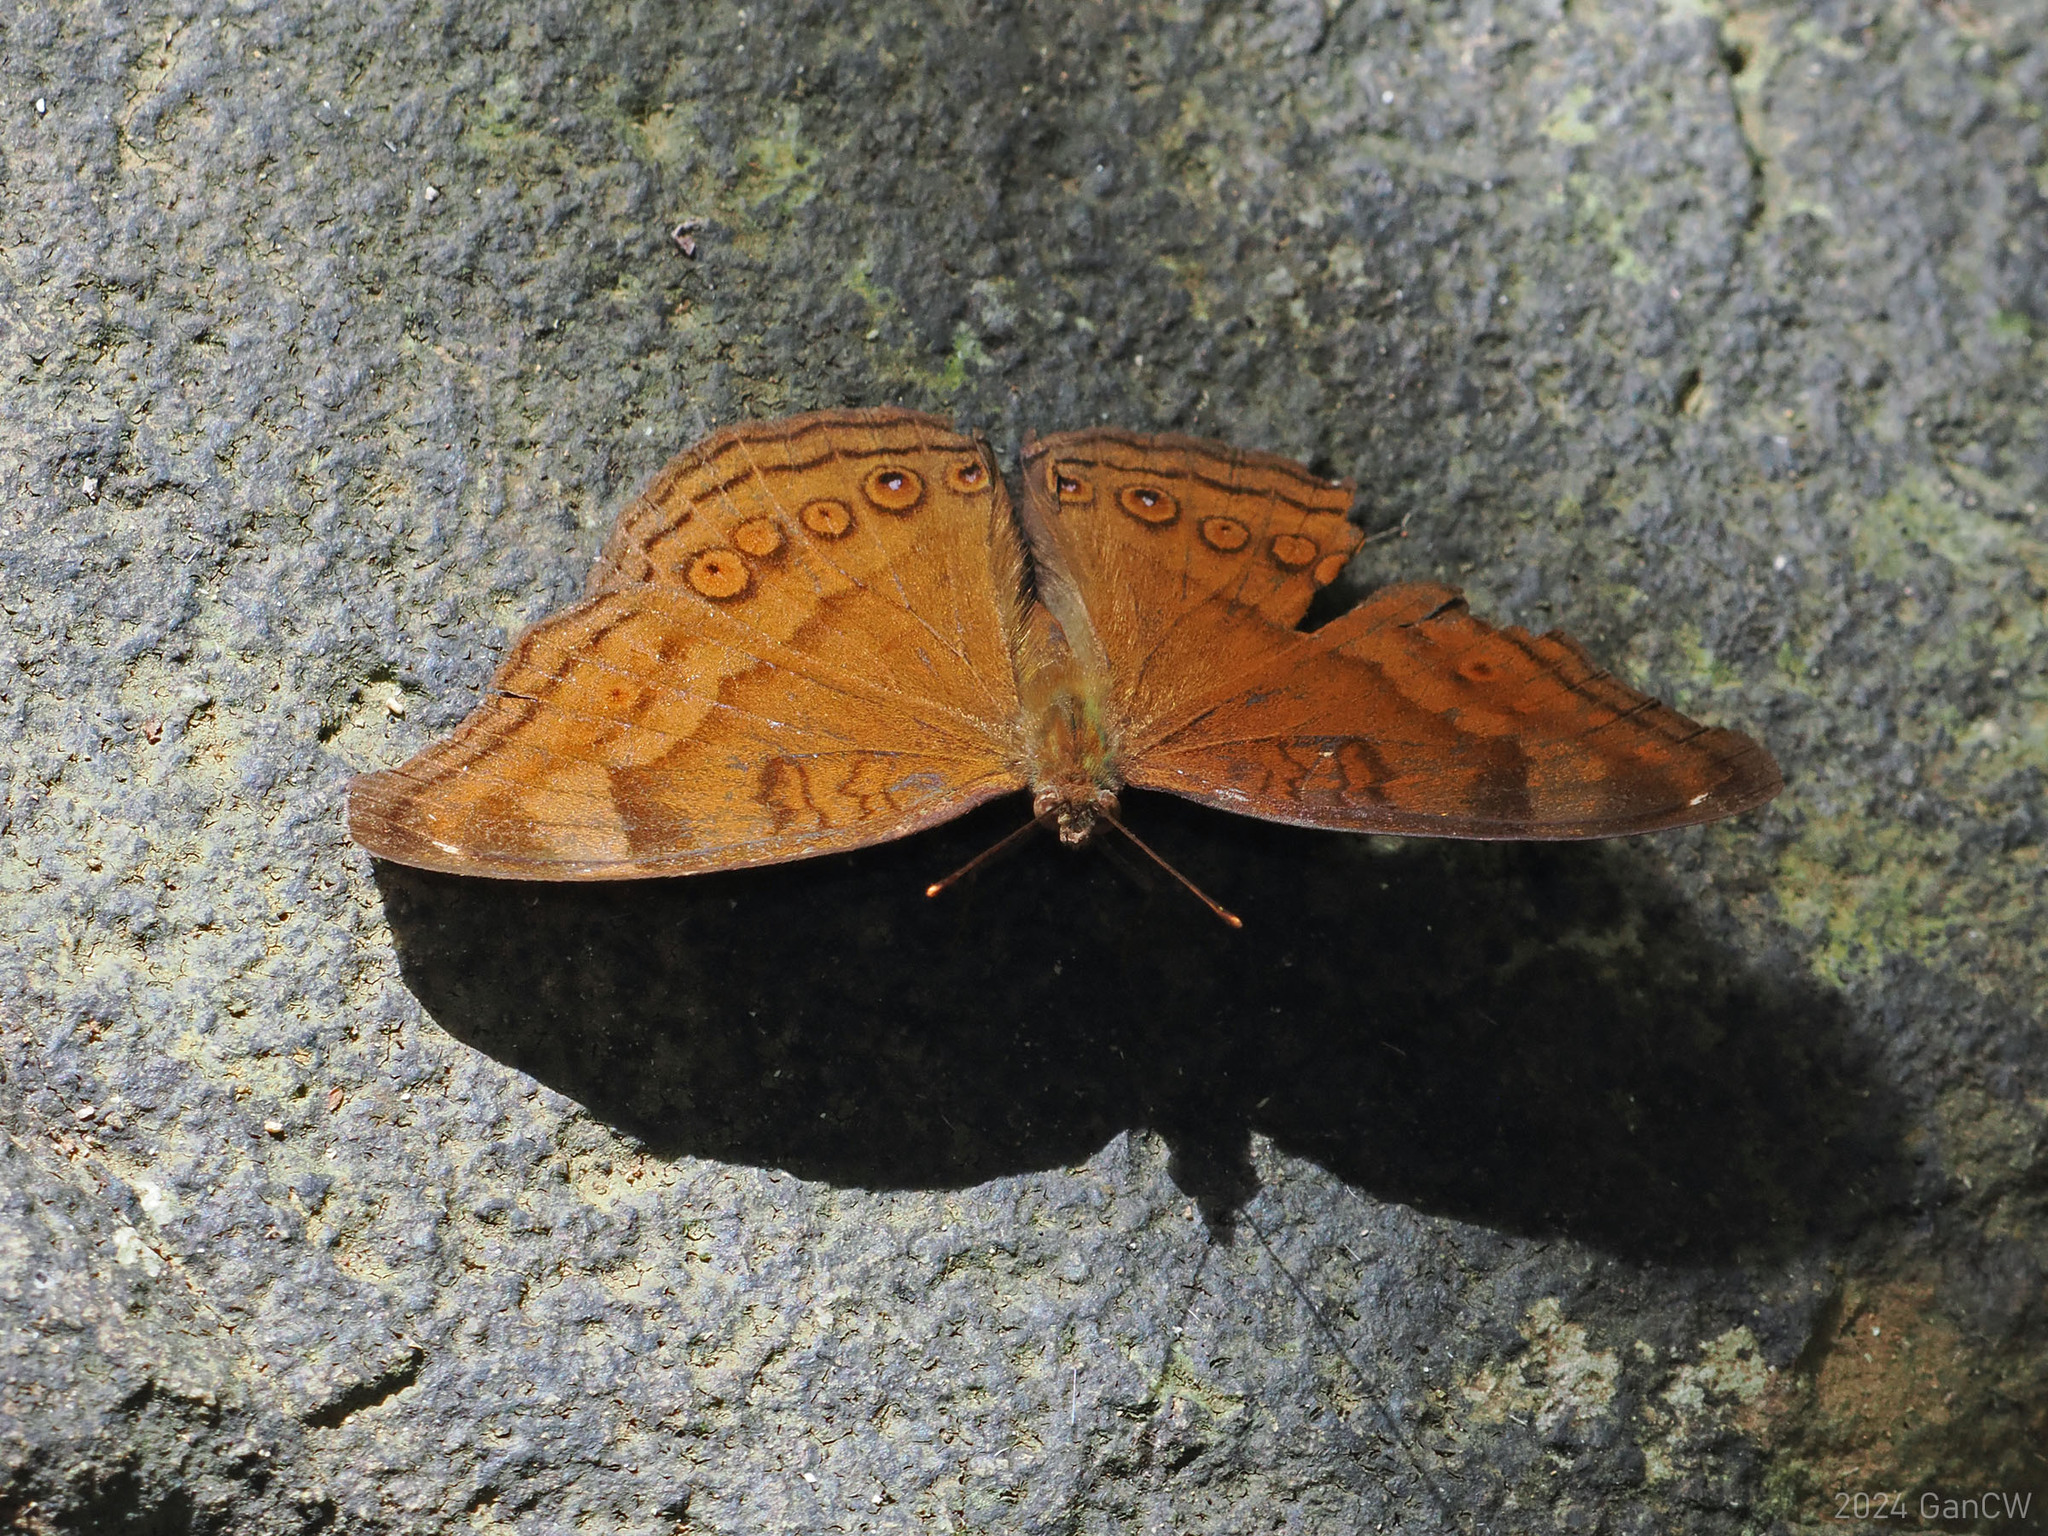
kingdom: Animalia
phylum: Arthropoda
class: Insecta
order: Lepidoptera
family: Nymphalidae
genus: Junonia
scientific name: Junonia hedonia
